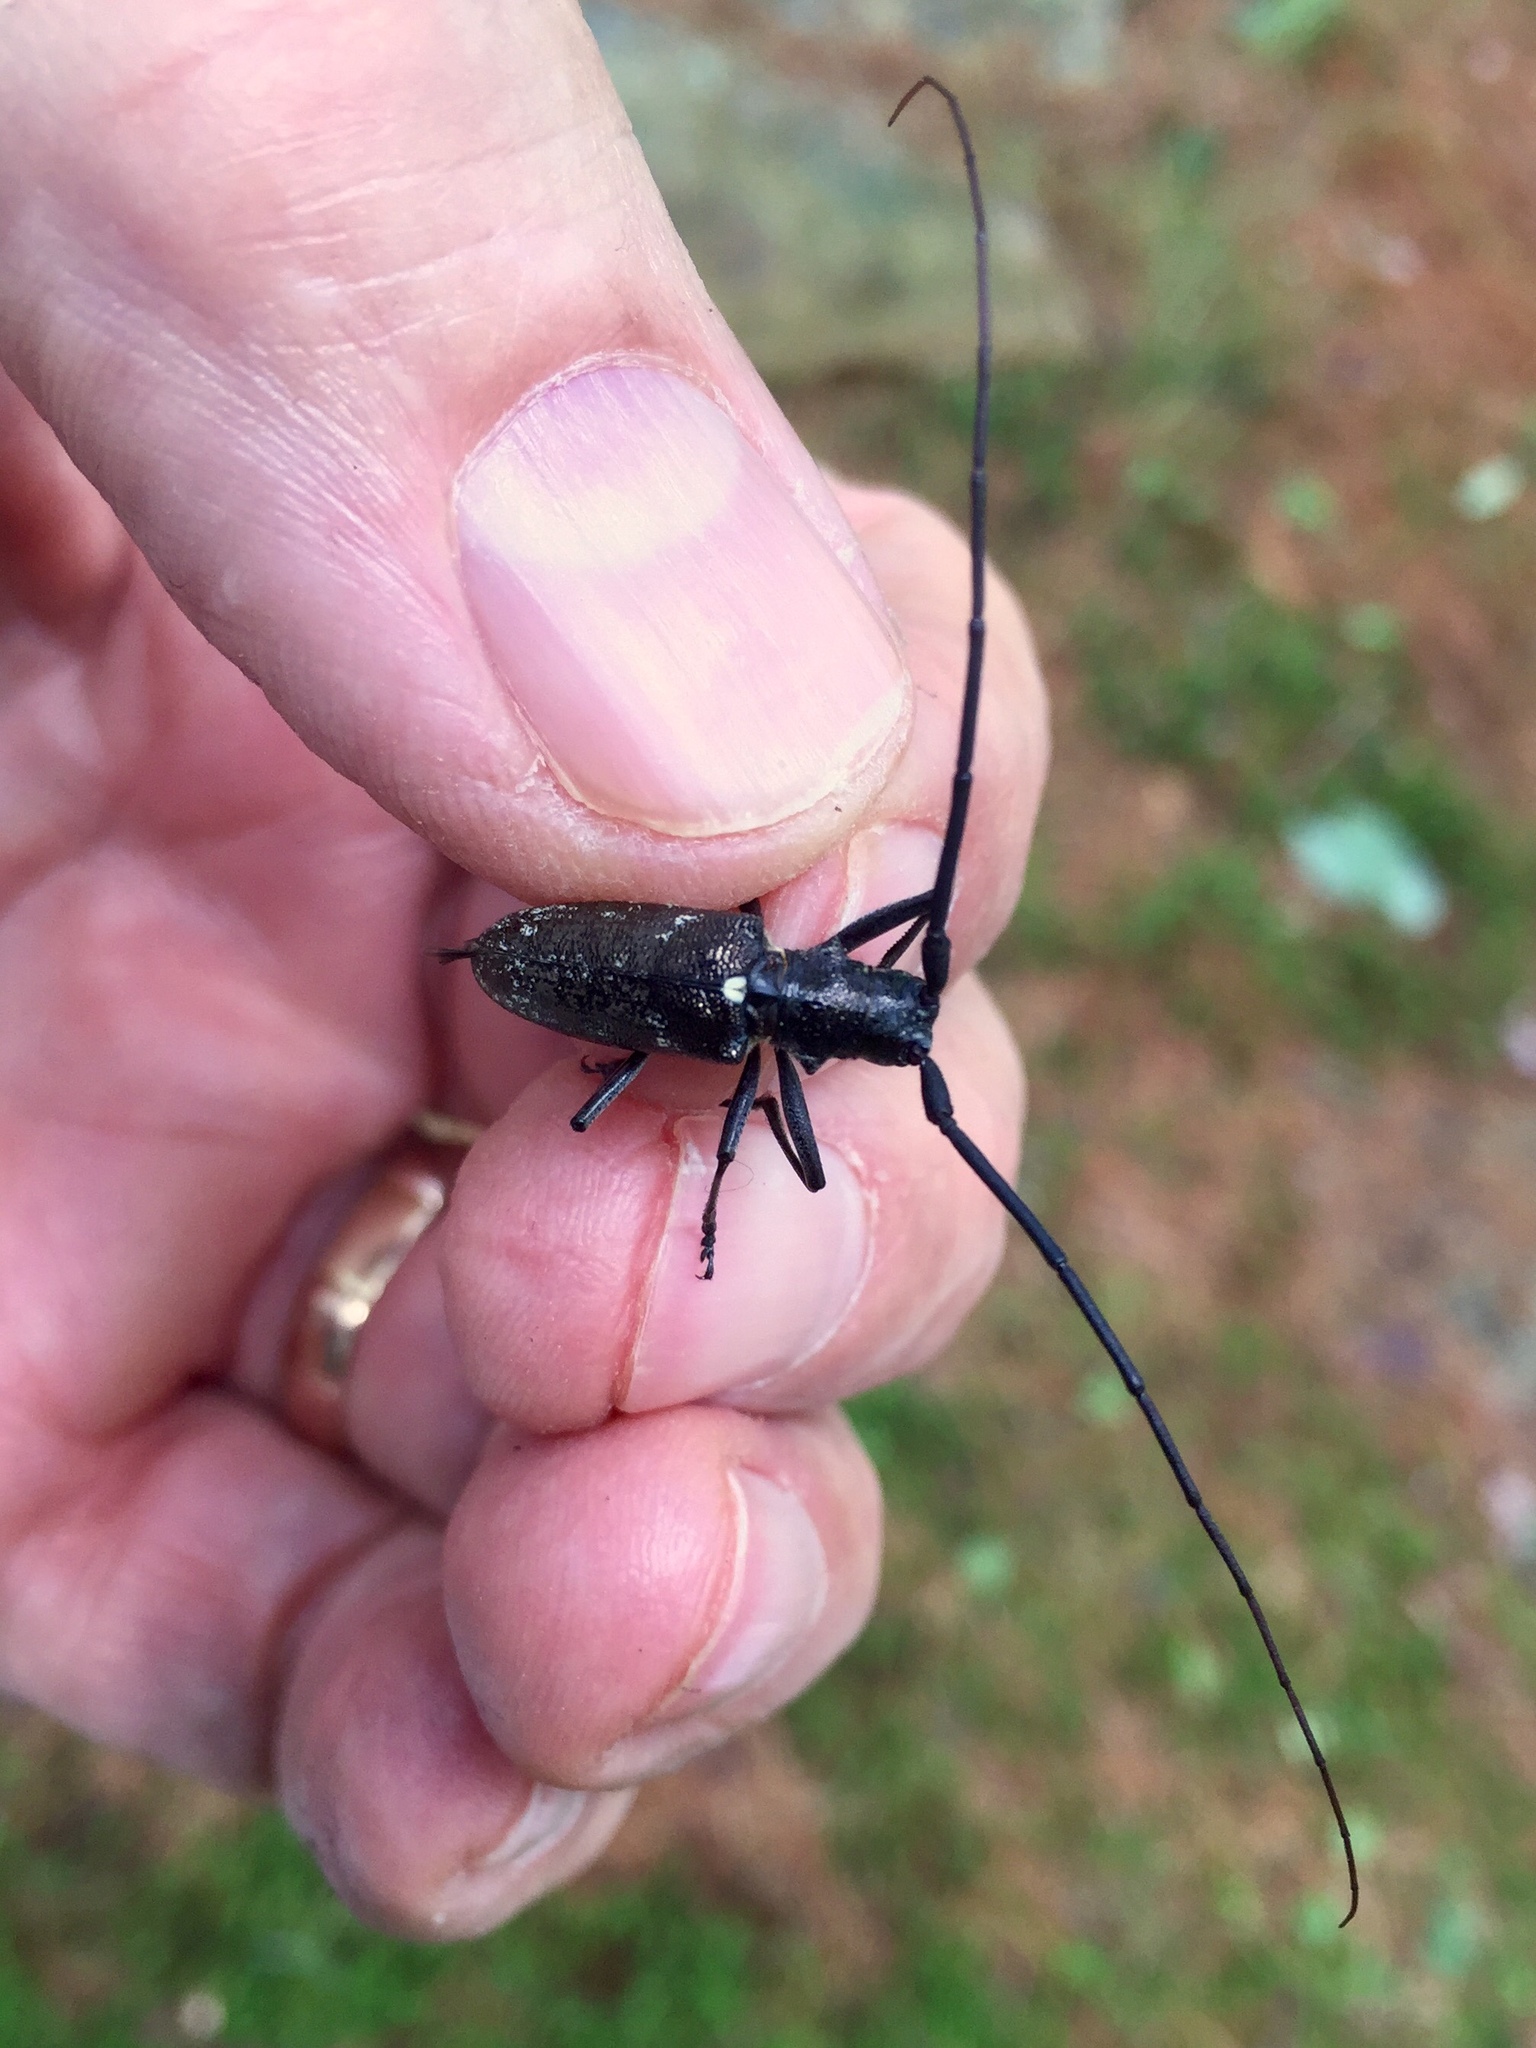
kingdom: Animalia
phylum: Arthropoda
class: Insecta
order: Coleoptera
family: Cerambycidae
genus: Monochamus
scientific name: Monochamus scutellatus
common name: White-spotted sawyer beetle
